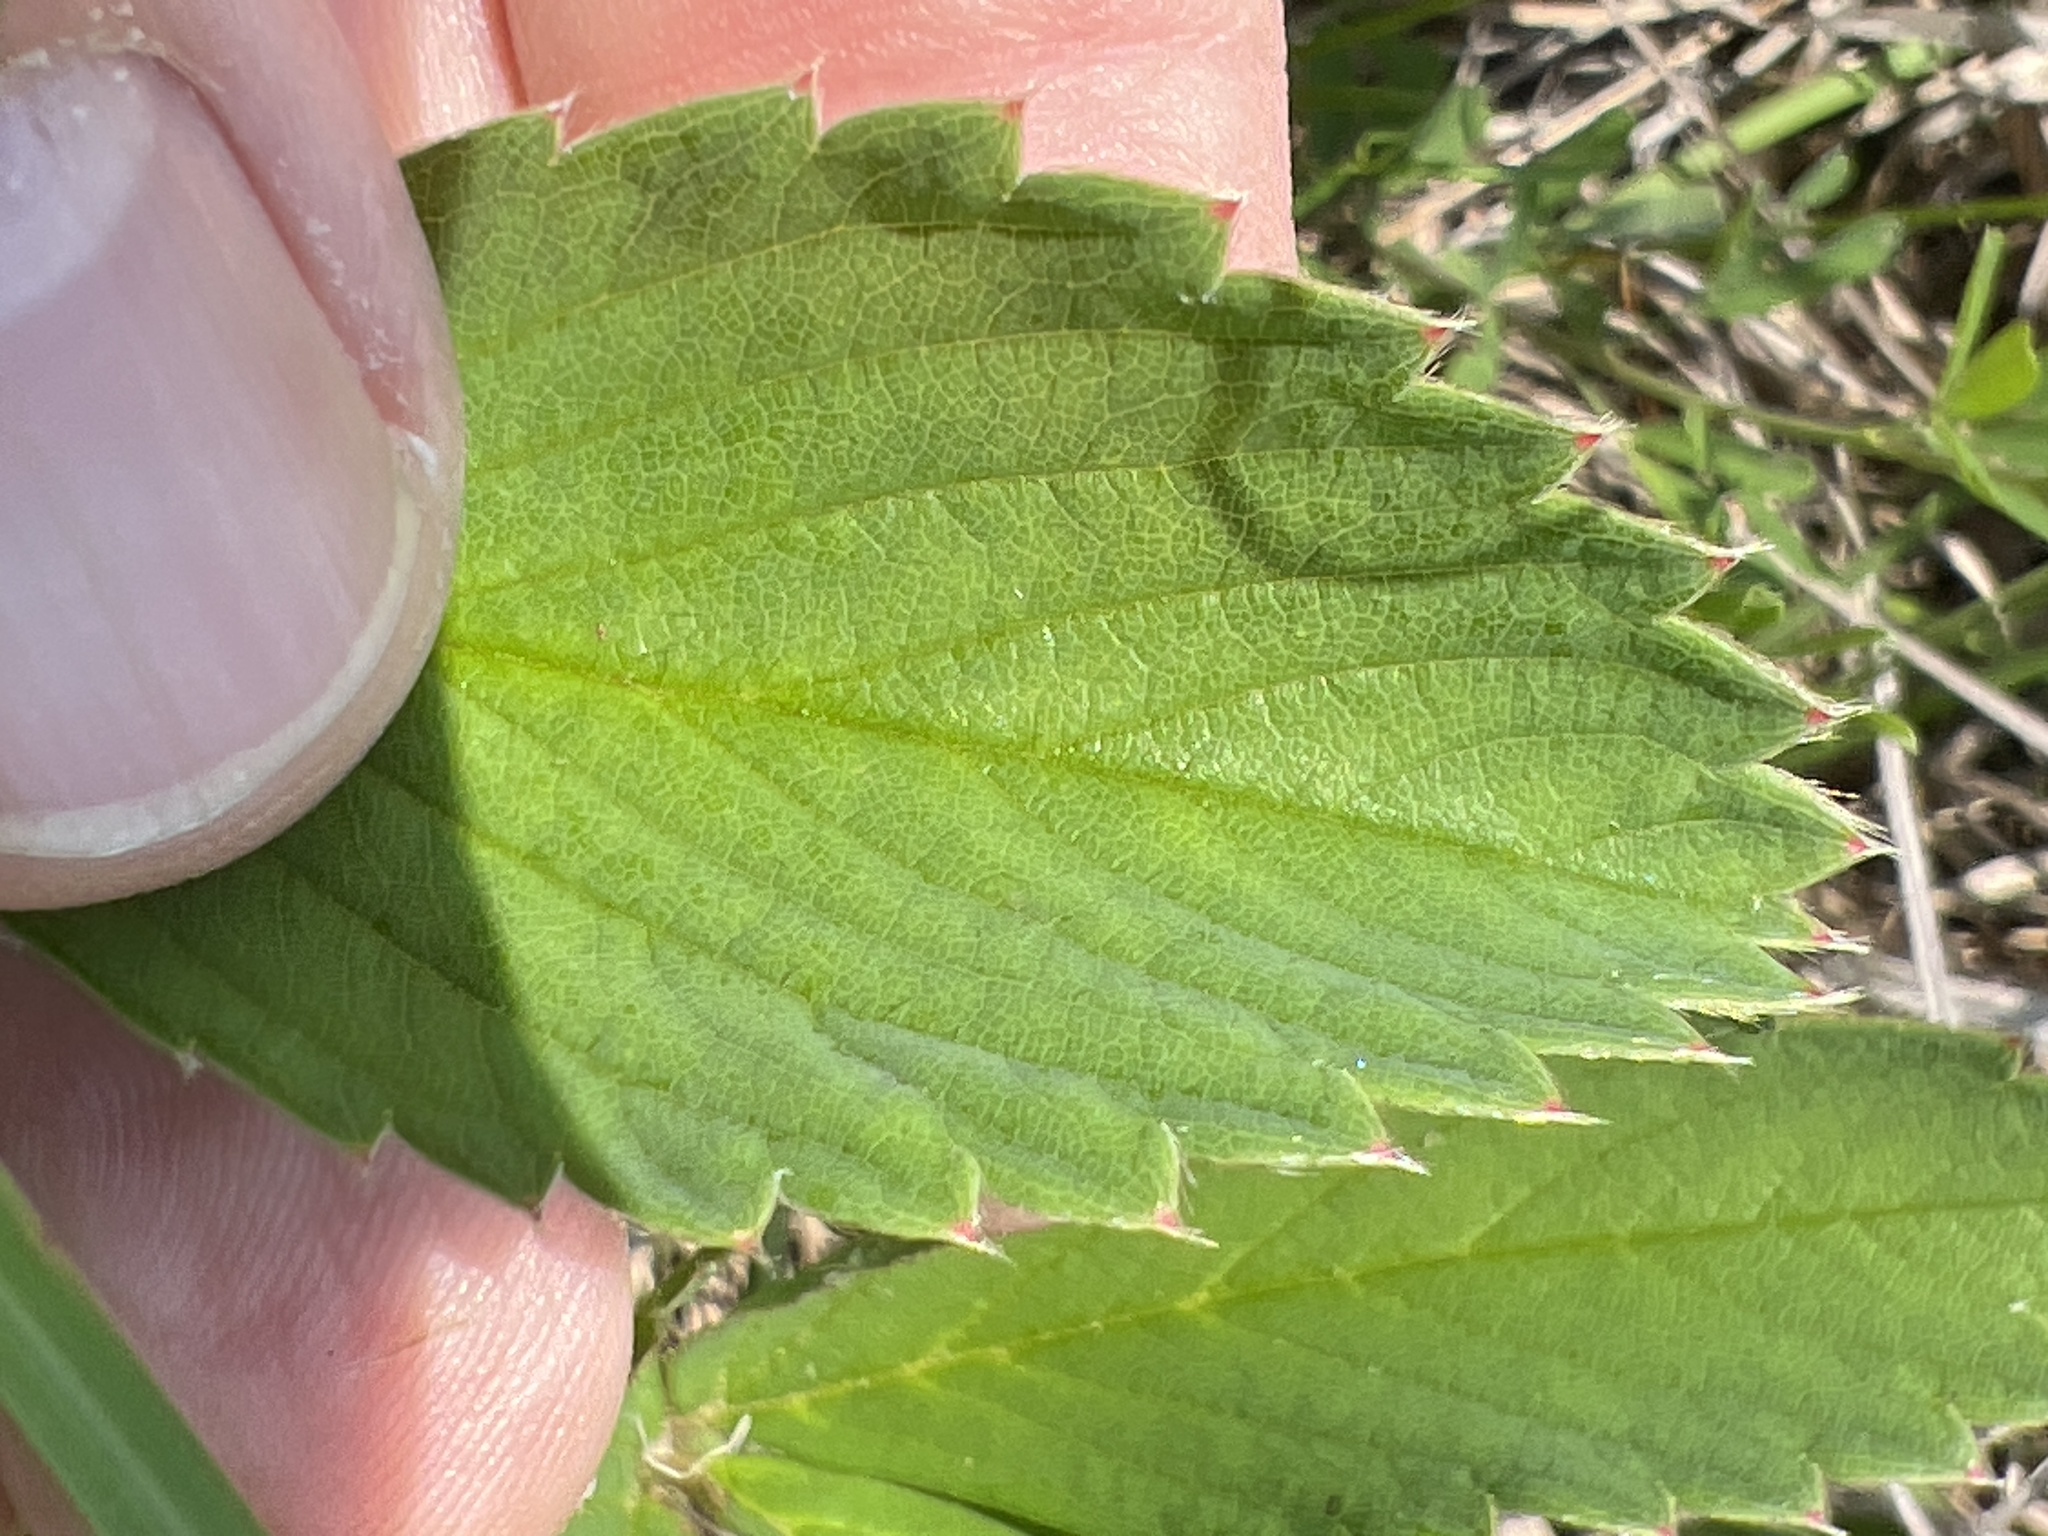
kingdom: Plantae
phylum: Tracheophyta
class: Magnoliopsida
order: Rosales
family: Rosaceae
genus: Fragaria
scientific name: Fragaria virginiana
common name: Thickleaved wild strawberry
